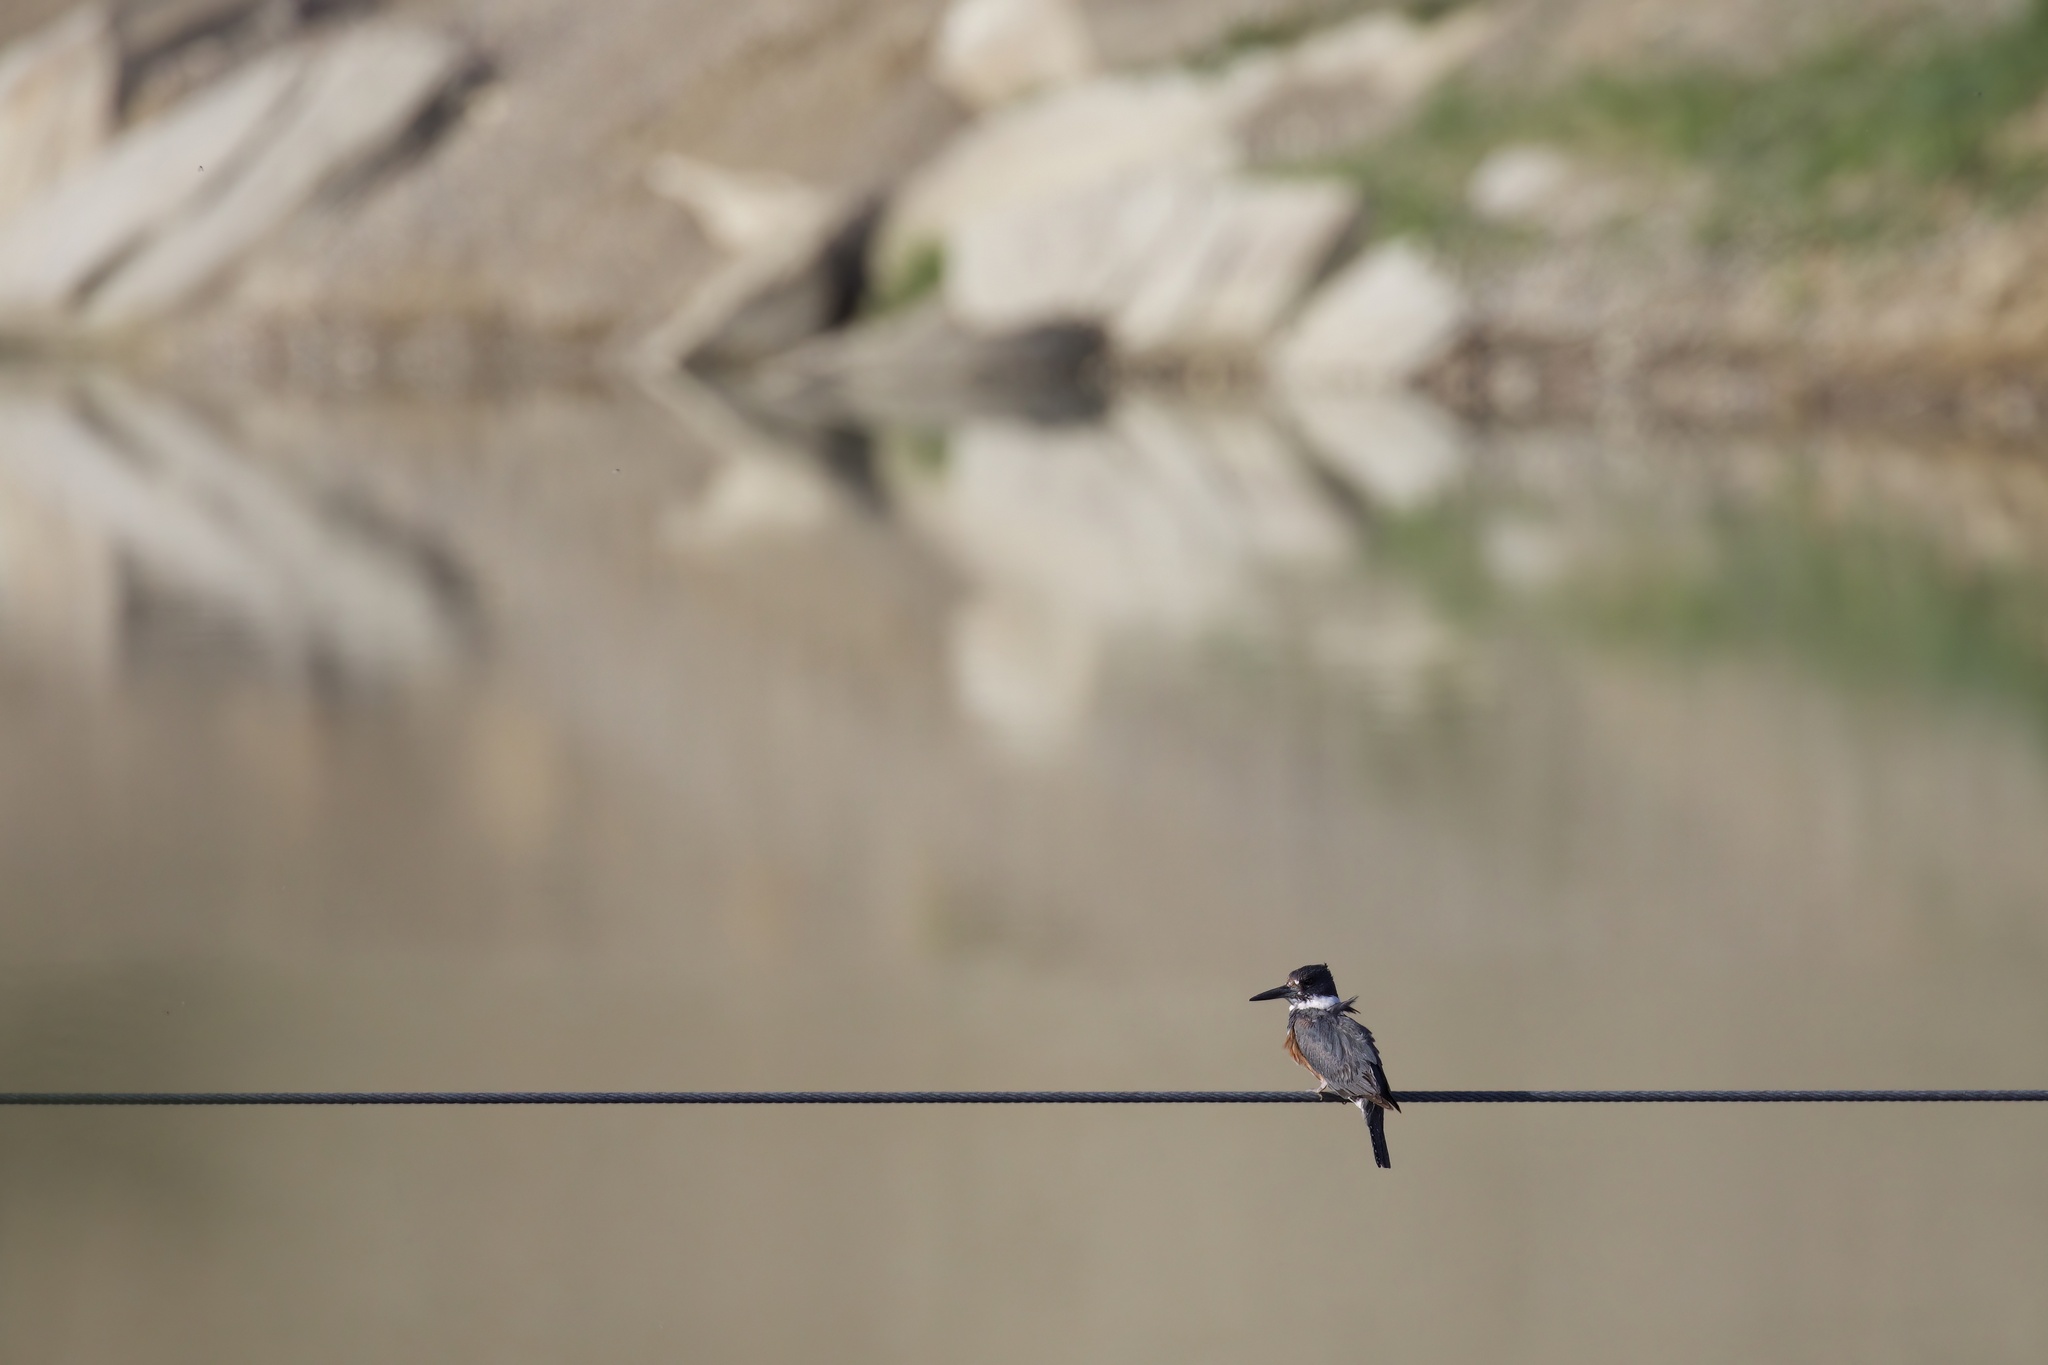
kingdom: Animalia
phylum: Chordata
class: Aves
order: Coraciiformes
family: Alcedinidae
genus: Megaceryle
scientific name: Megaceryle alcyon
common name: Belted kingfisher
